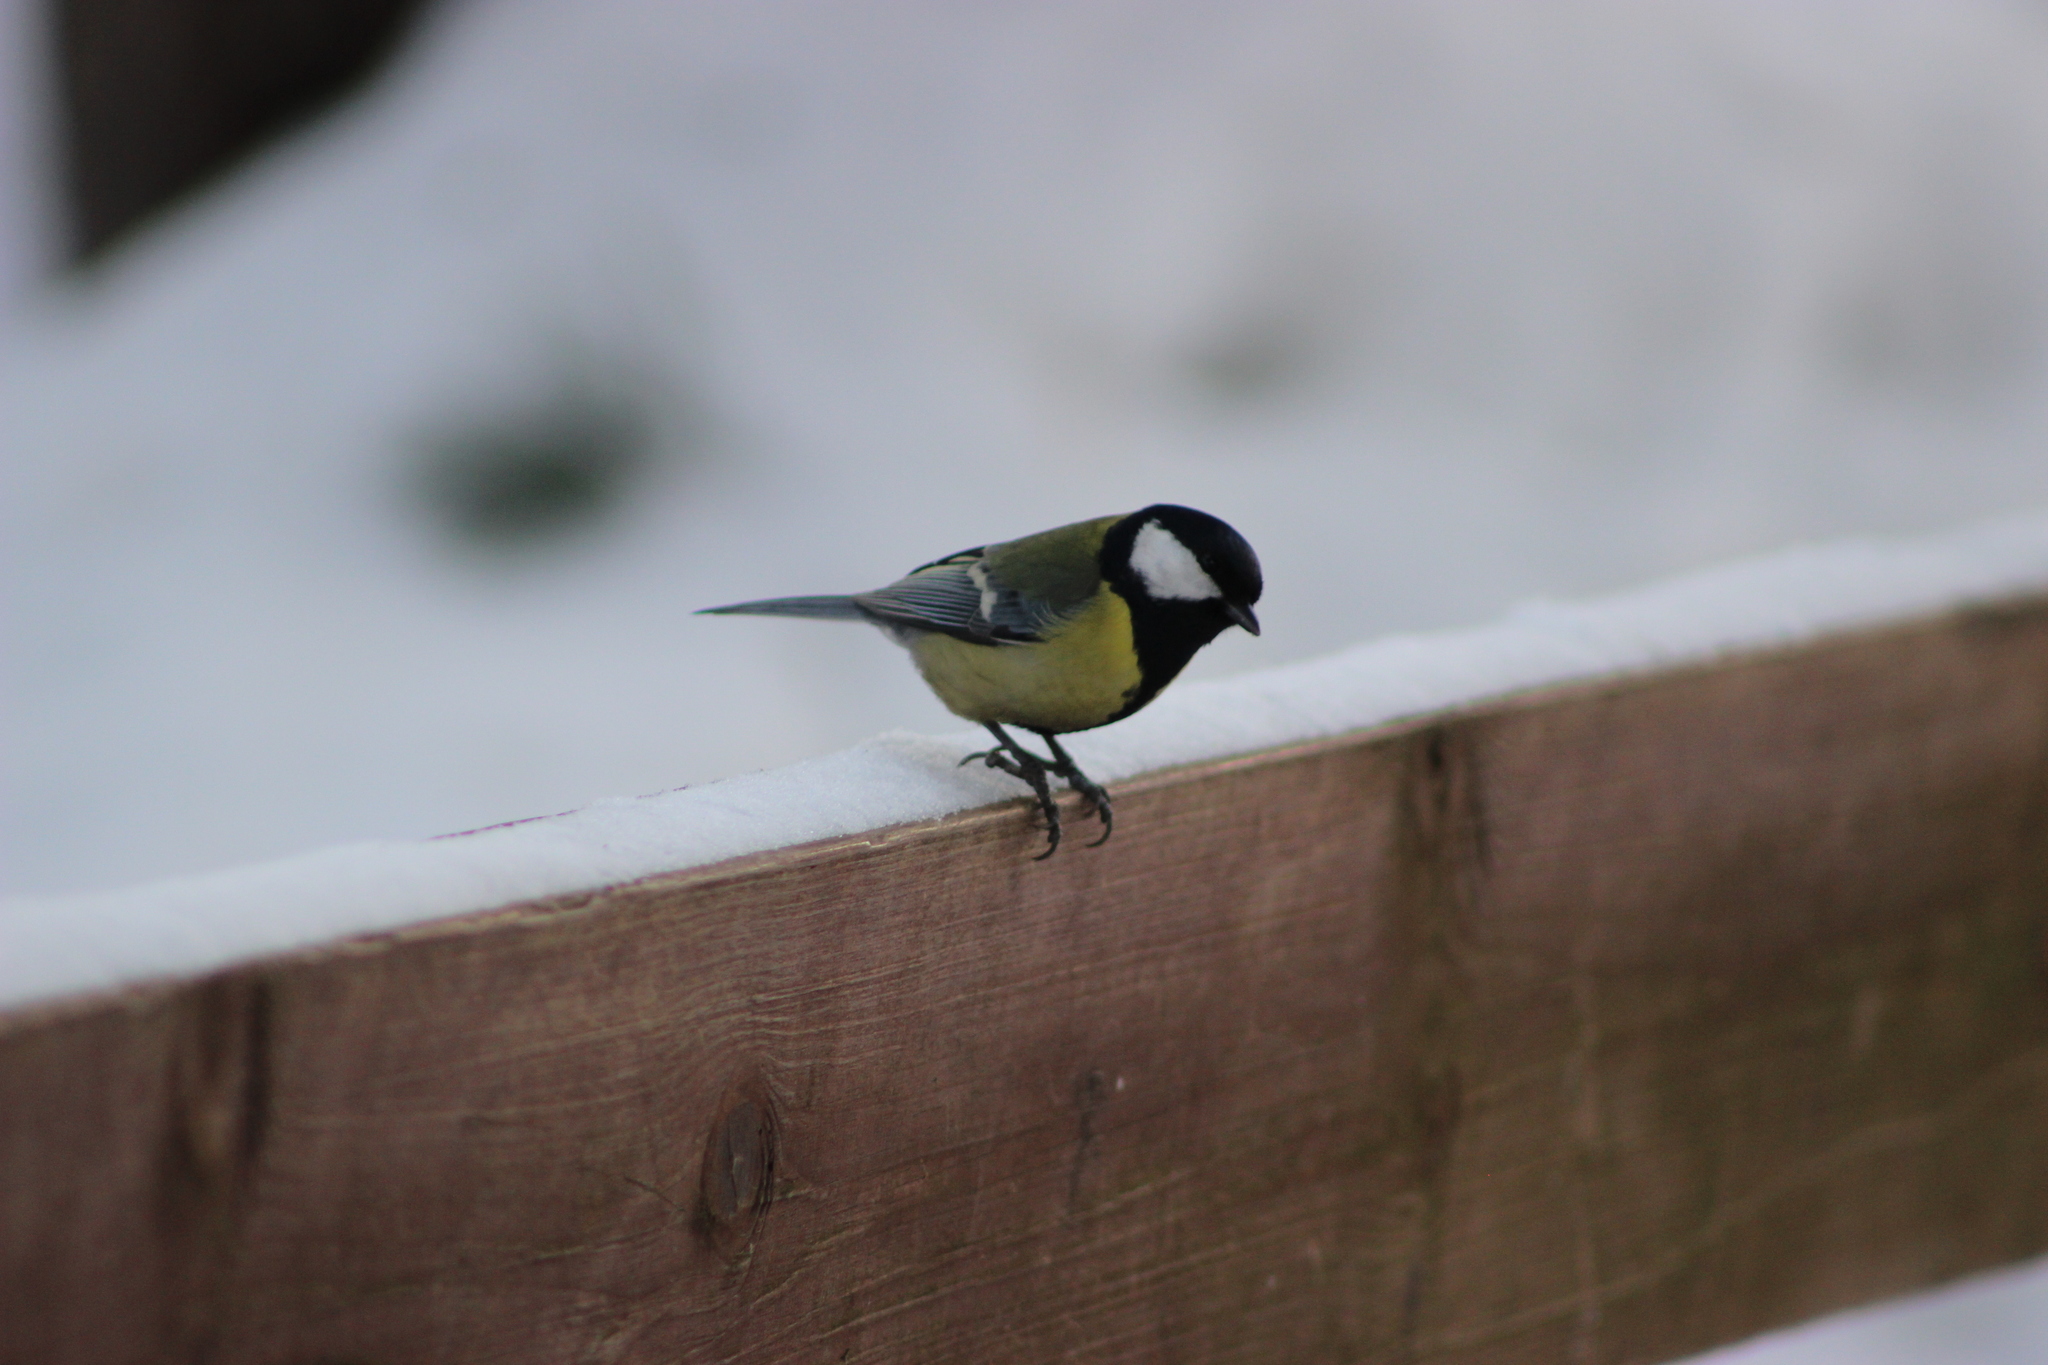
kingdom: Animalia
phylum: Chordata
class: Aves
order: Passeriformes
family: Paridae
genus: Parus
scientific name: Parus major
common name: Great tit
